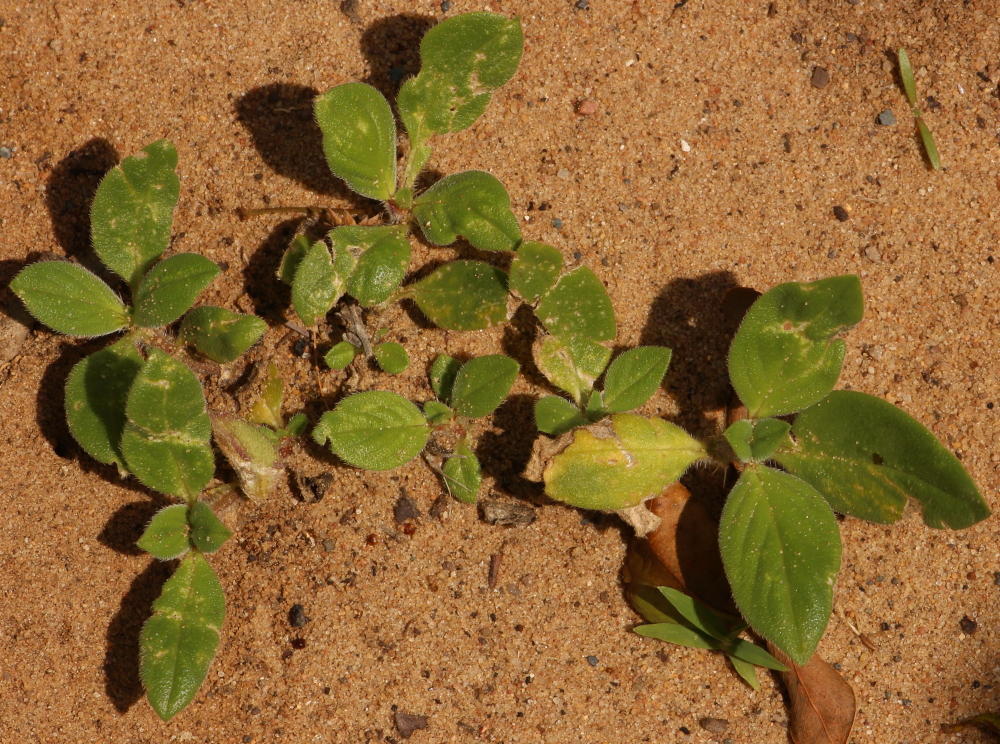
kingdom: Plantae
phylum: Tracheophyta
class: Magnoliopsida
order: Gentianales
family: Rubiaceae
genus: Richardia
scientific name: Richardia brasiliensis
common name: Tropical mexican clover
